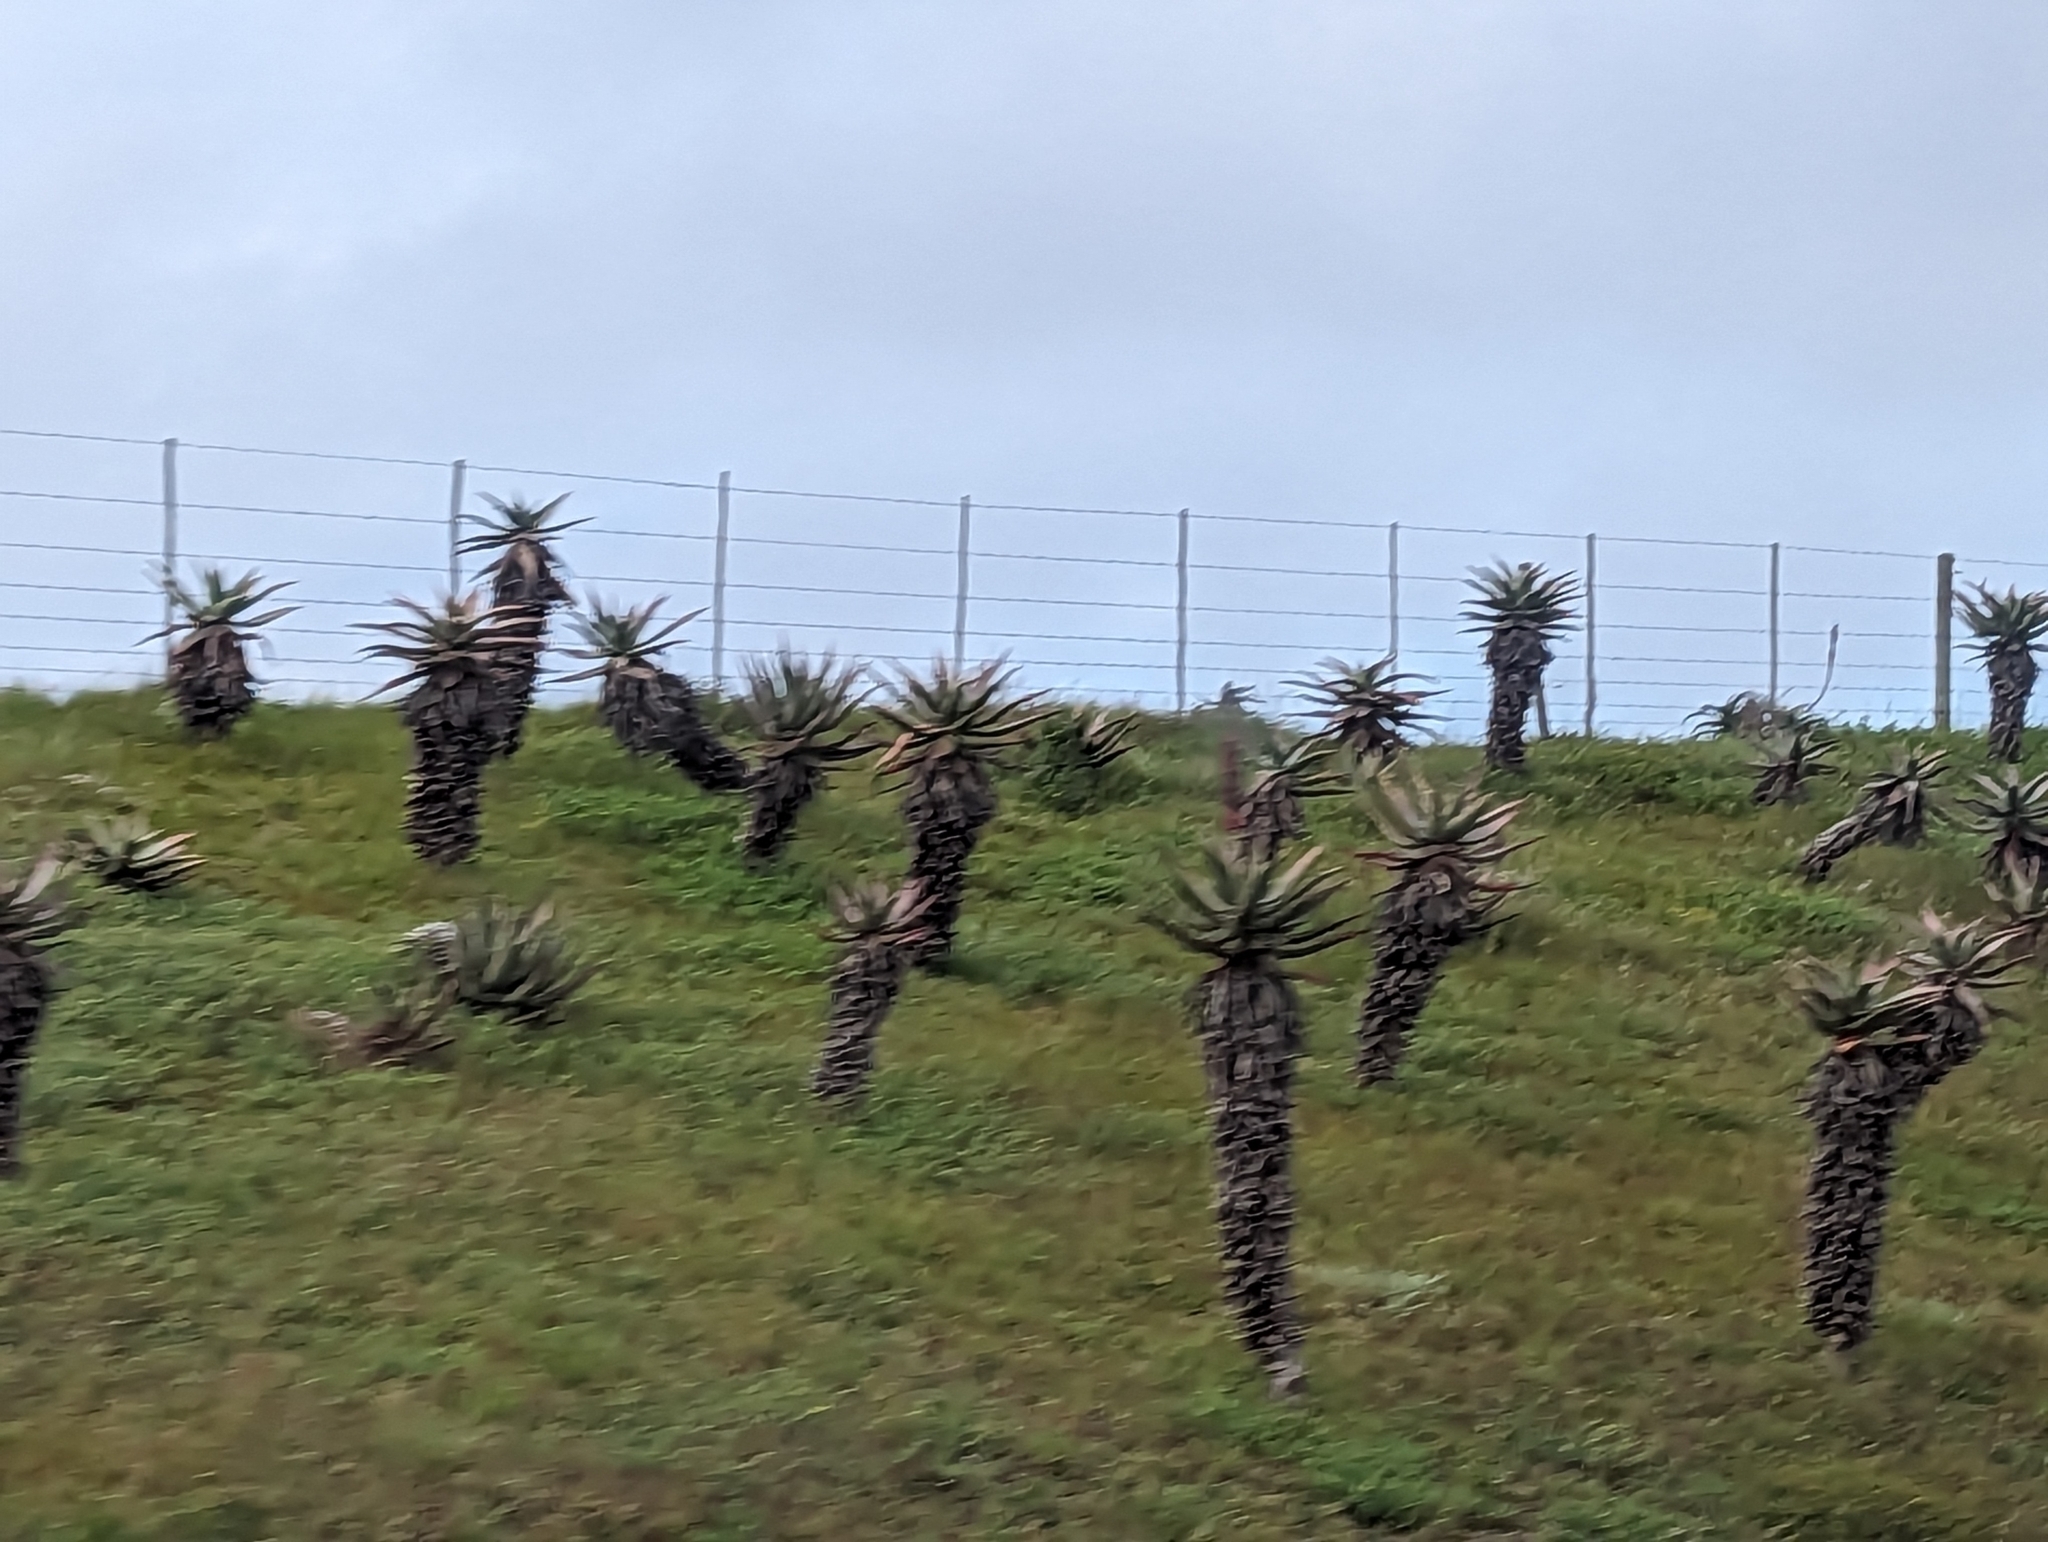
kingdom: Plantae
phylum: Tracheophyta
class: Liliopsida
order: Asparagales
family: Asphodelaceae
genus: Aloe
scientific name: Aloe ferox
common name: Bitter aloe
